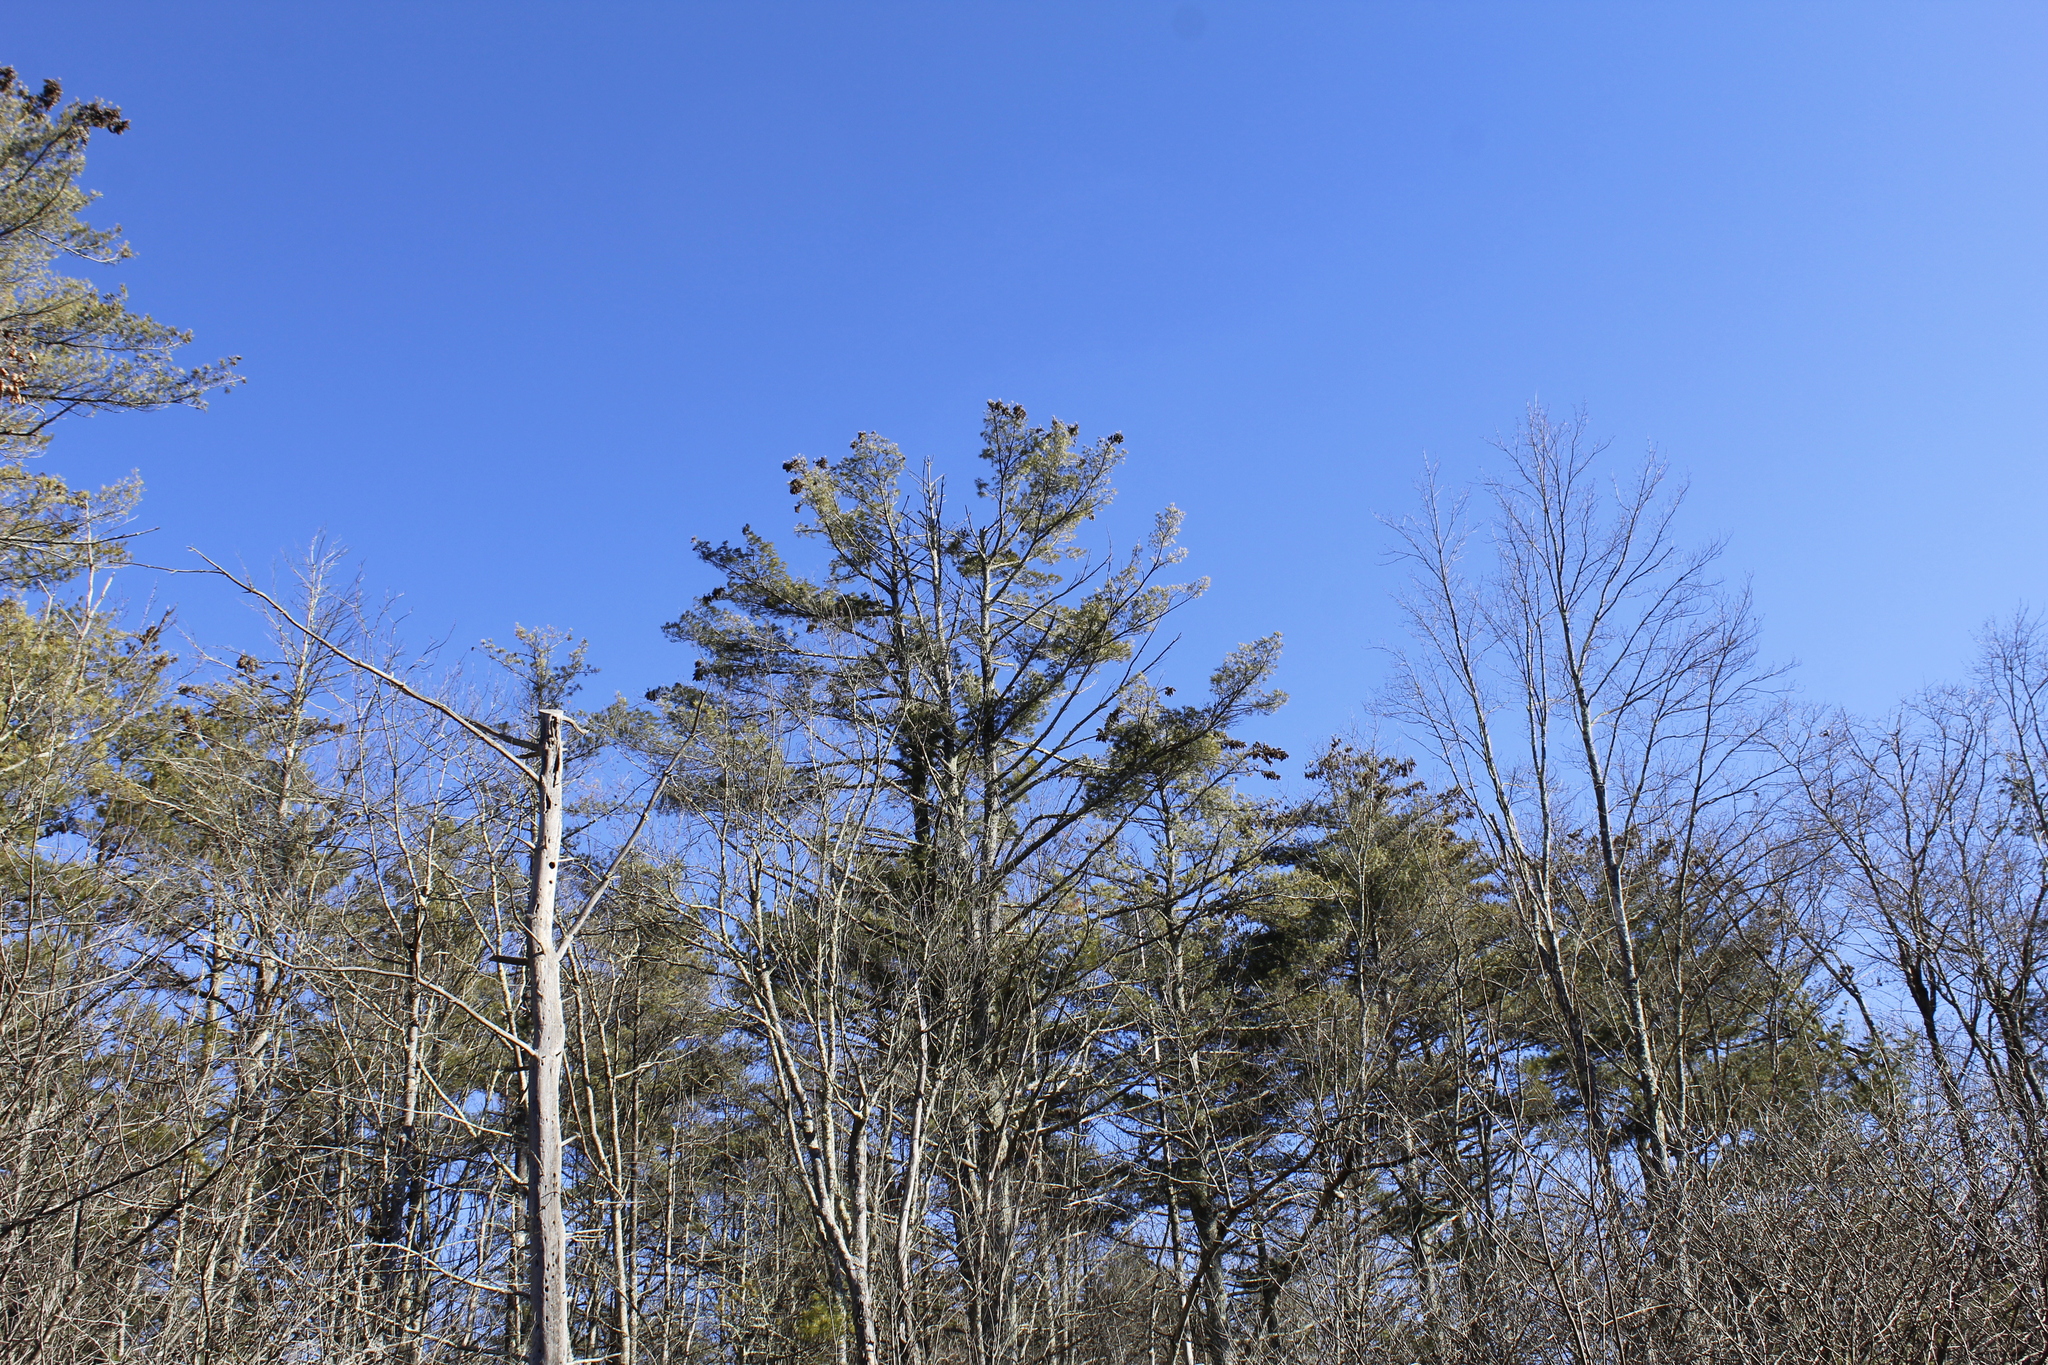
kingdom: Plantae
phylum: Tracheophyta
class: Pinopsida
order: Pinales
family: Pinaceae
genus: Pinus
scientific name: Pinus strobus
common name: Weymouth pine
